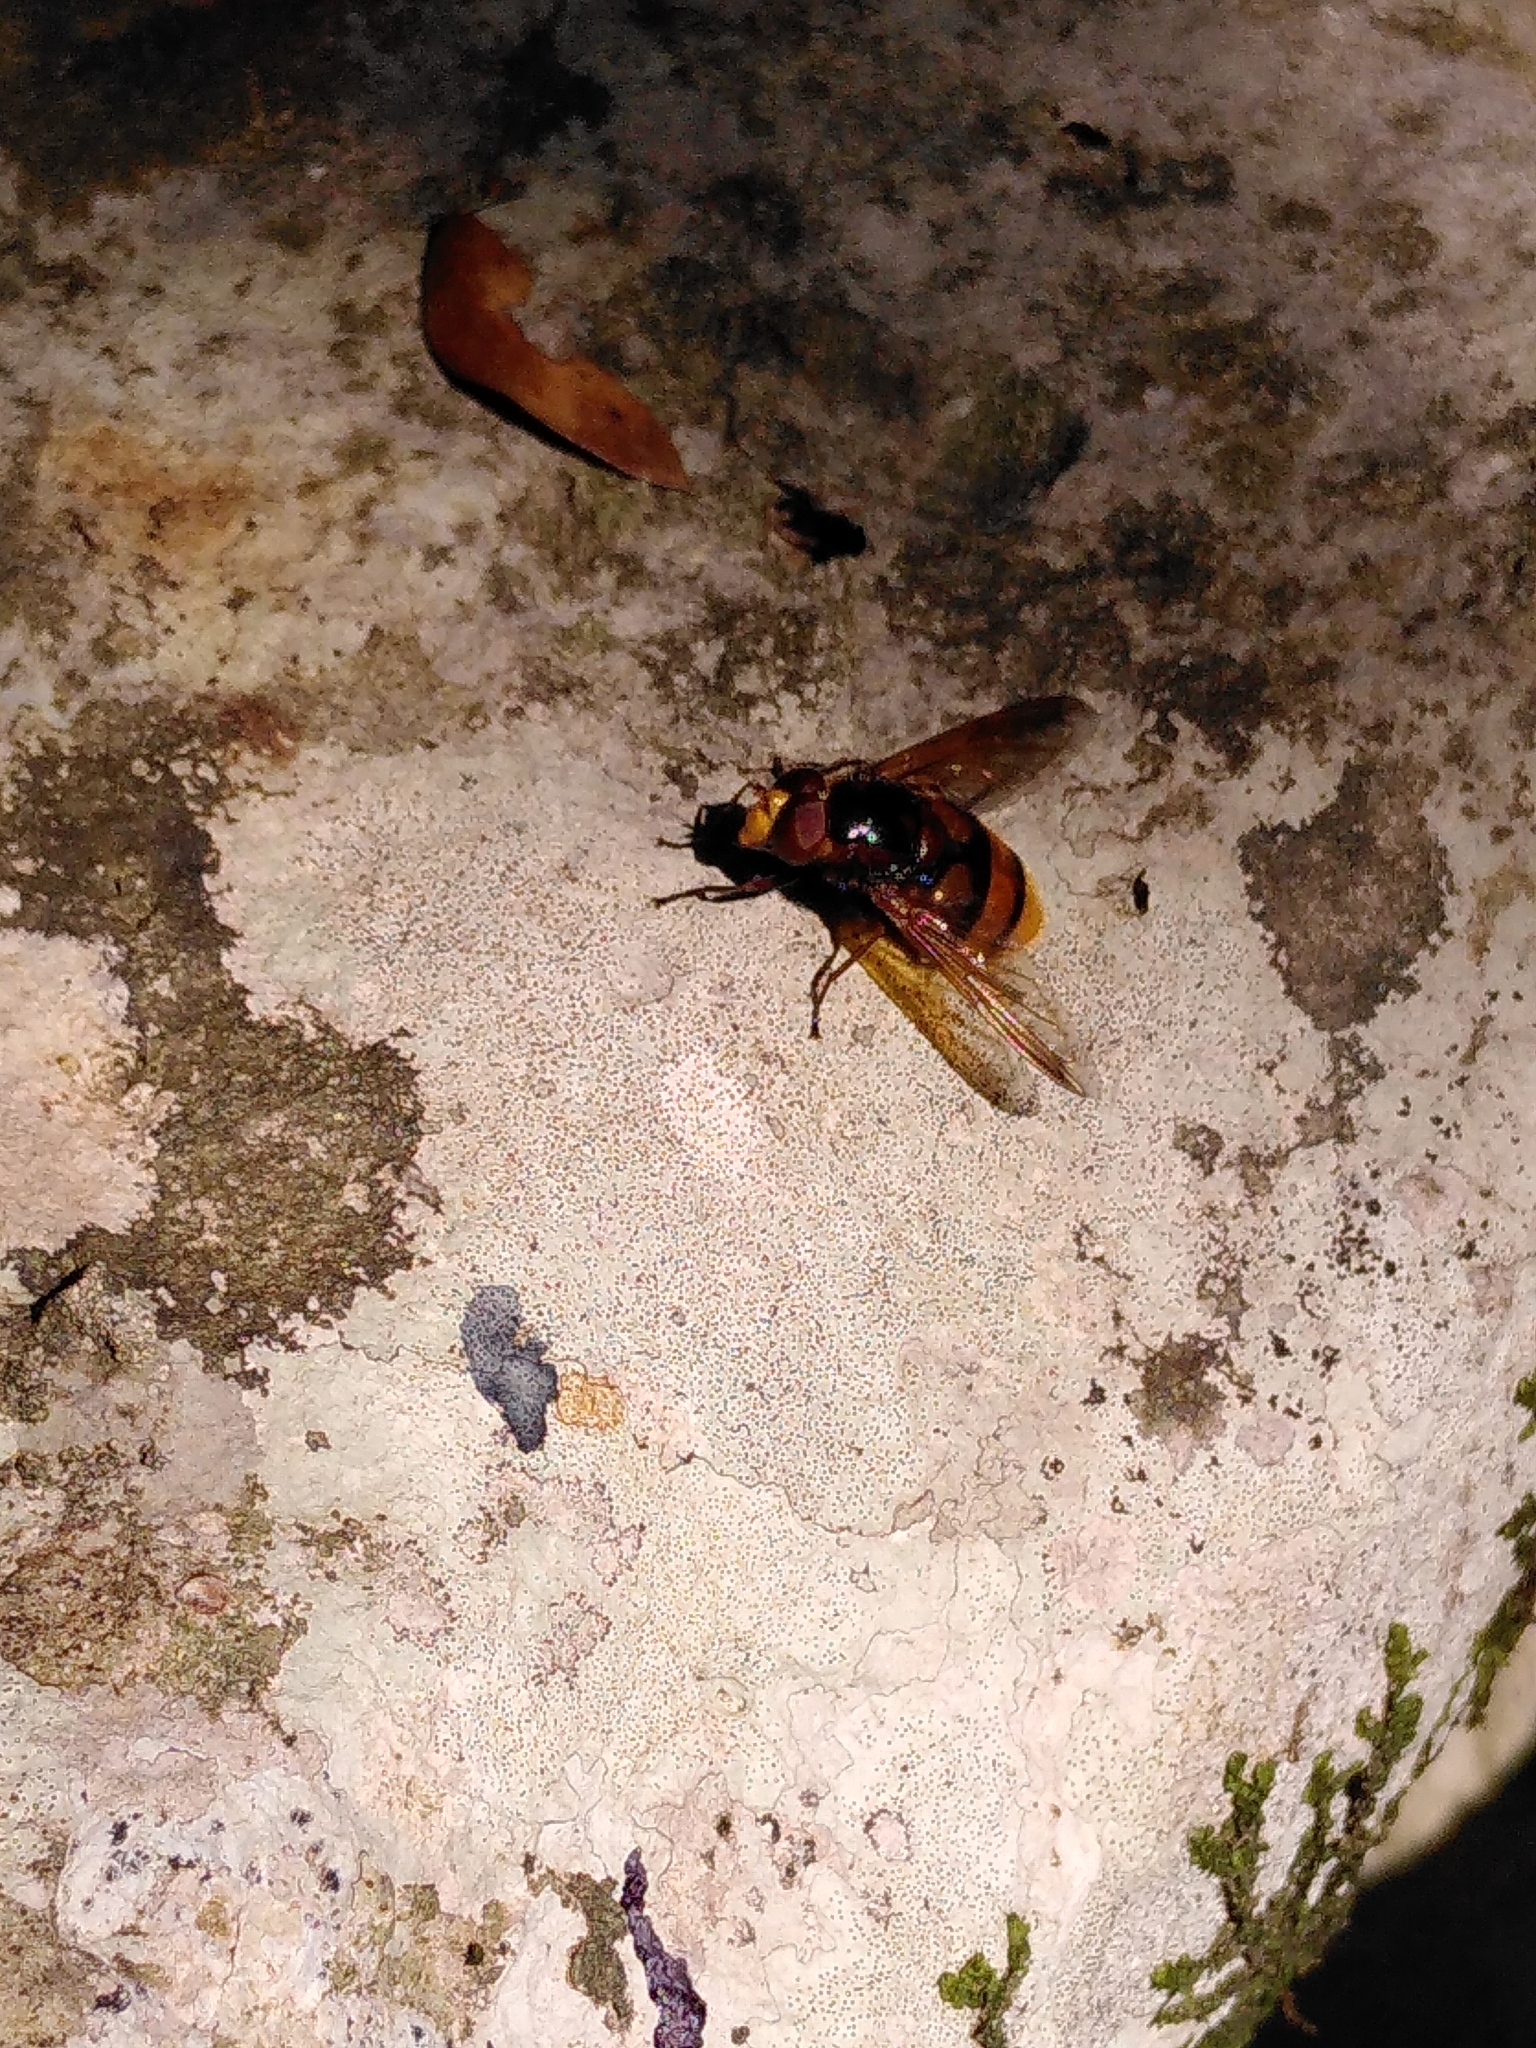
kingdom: Animalia
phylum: Arthropoda
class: Insecta
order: Diptera
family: Syrphidae
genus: Volucella
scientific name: Volucella zonaria
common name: Hornet hoverfly
